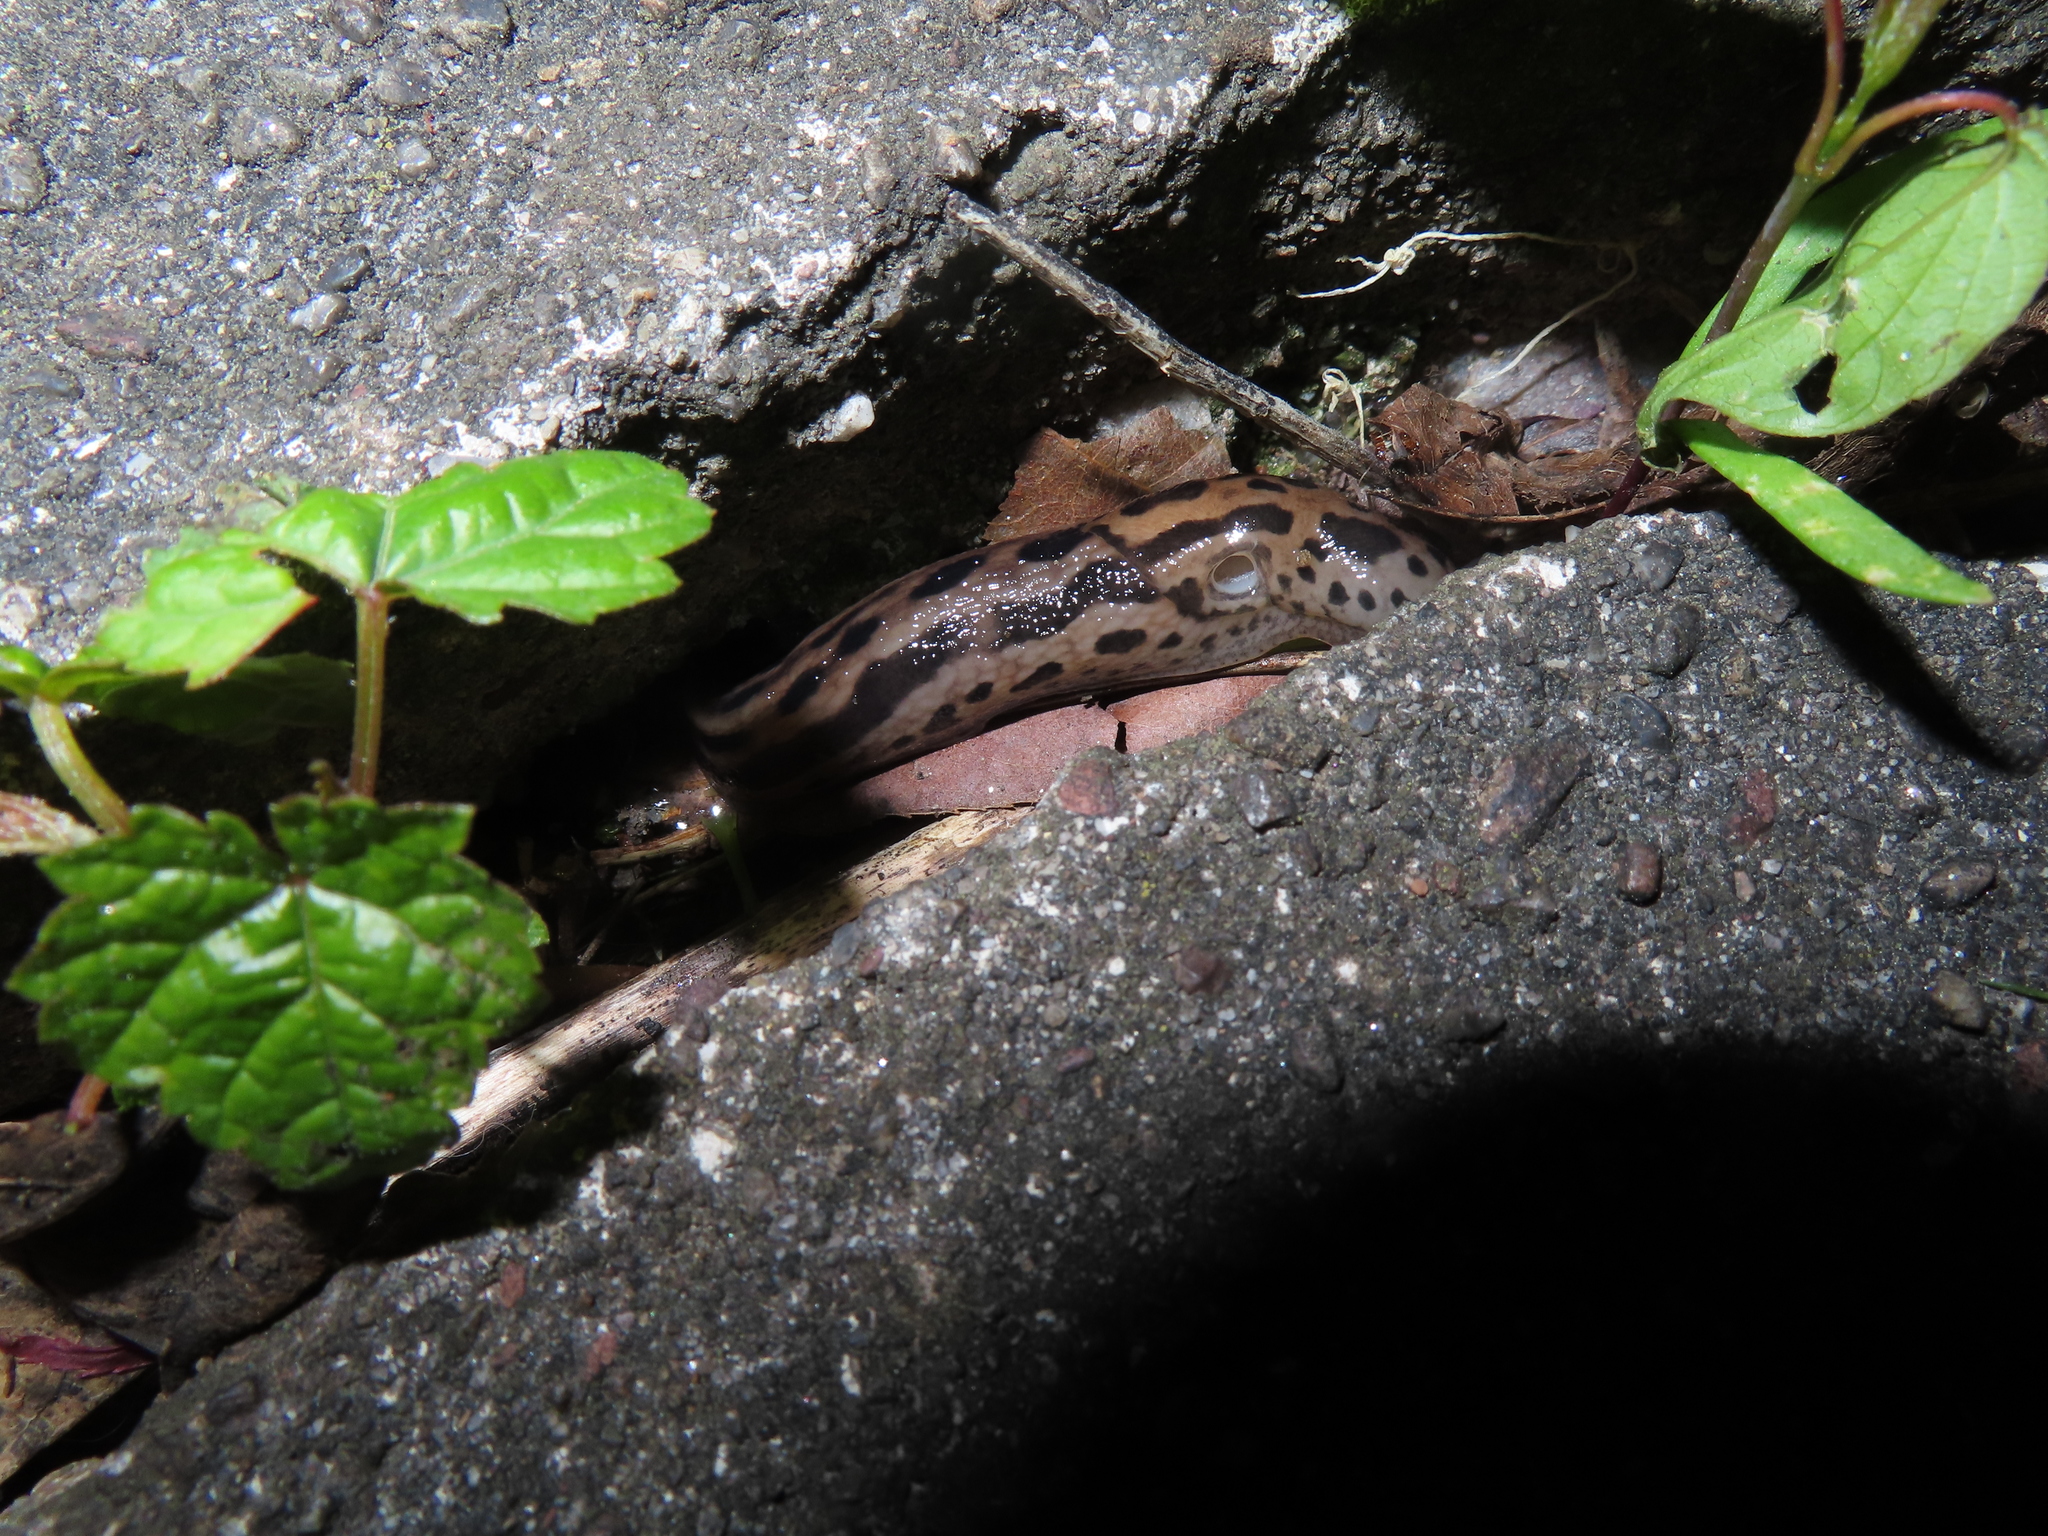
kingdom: Animalia
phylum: Mollusca
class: Gastropoda
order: Stylommatophora
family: Limacidae
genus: Limax
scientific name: Limax maximus
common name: Great grey slug
